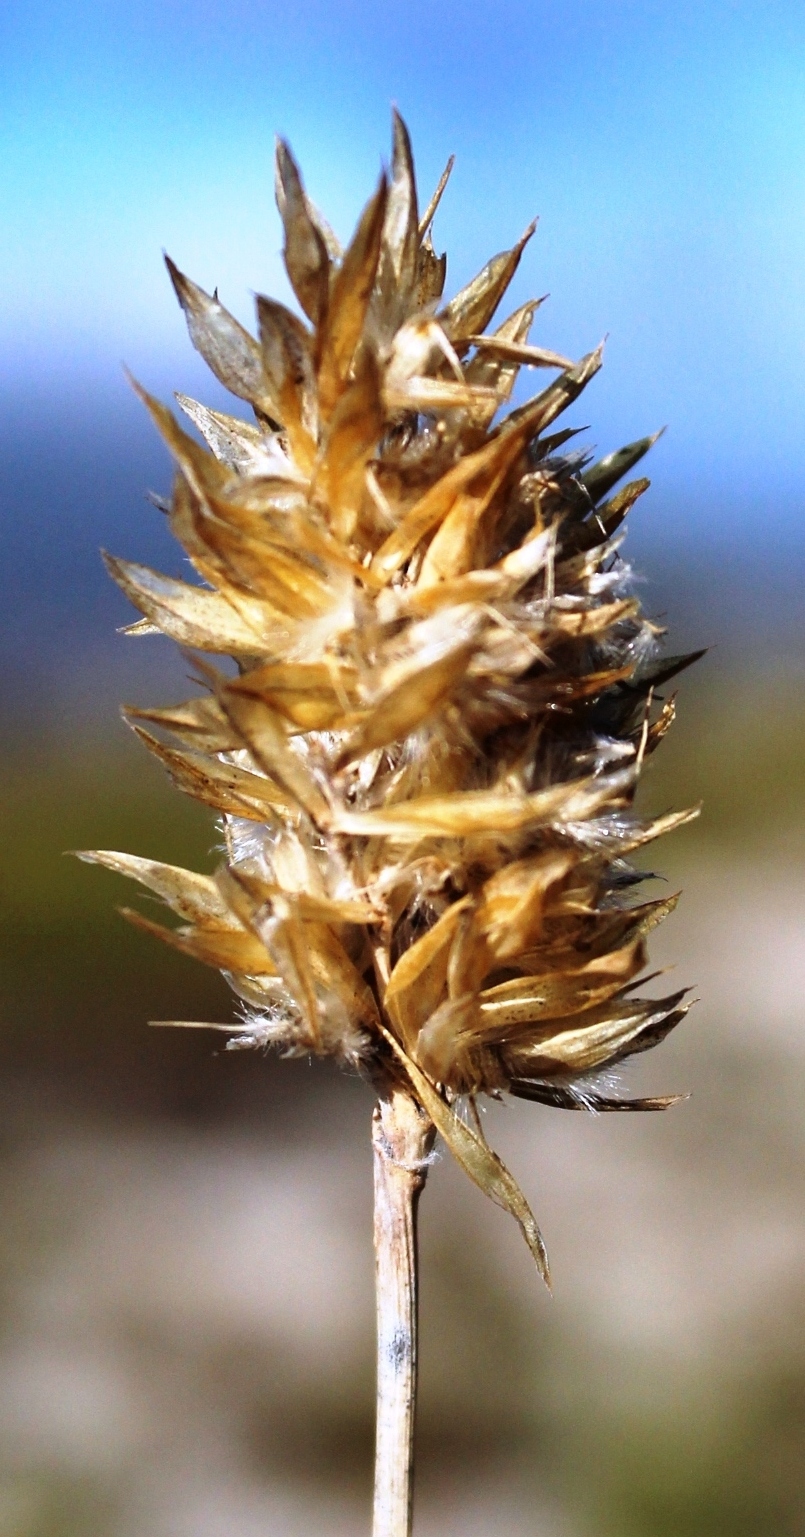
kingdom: Plantae
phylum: Tracheophyta
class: Liliopsida
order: Poales
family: Poaceae
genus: Geochloa
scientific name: Geochloa rufa
